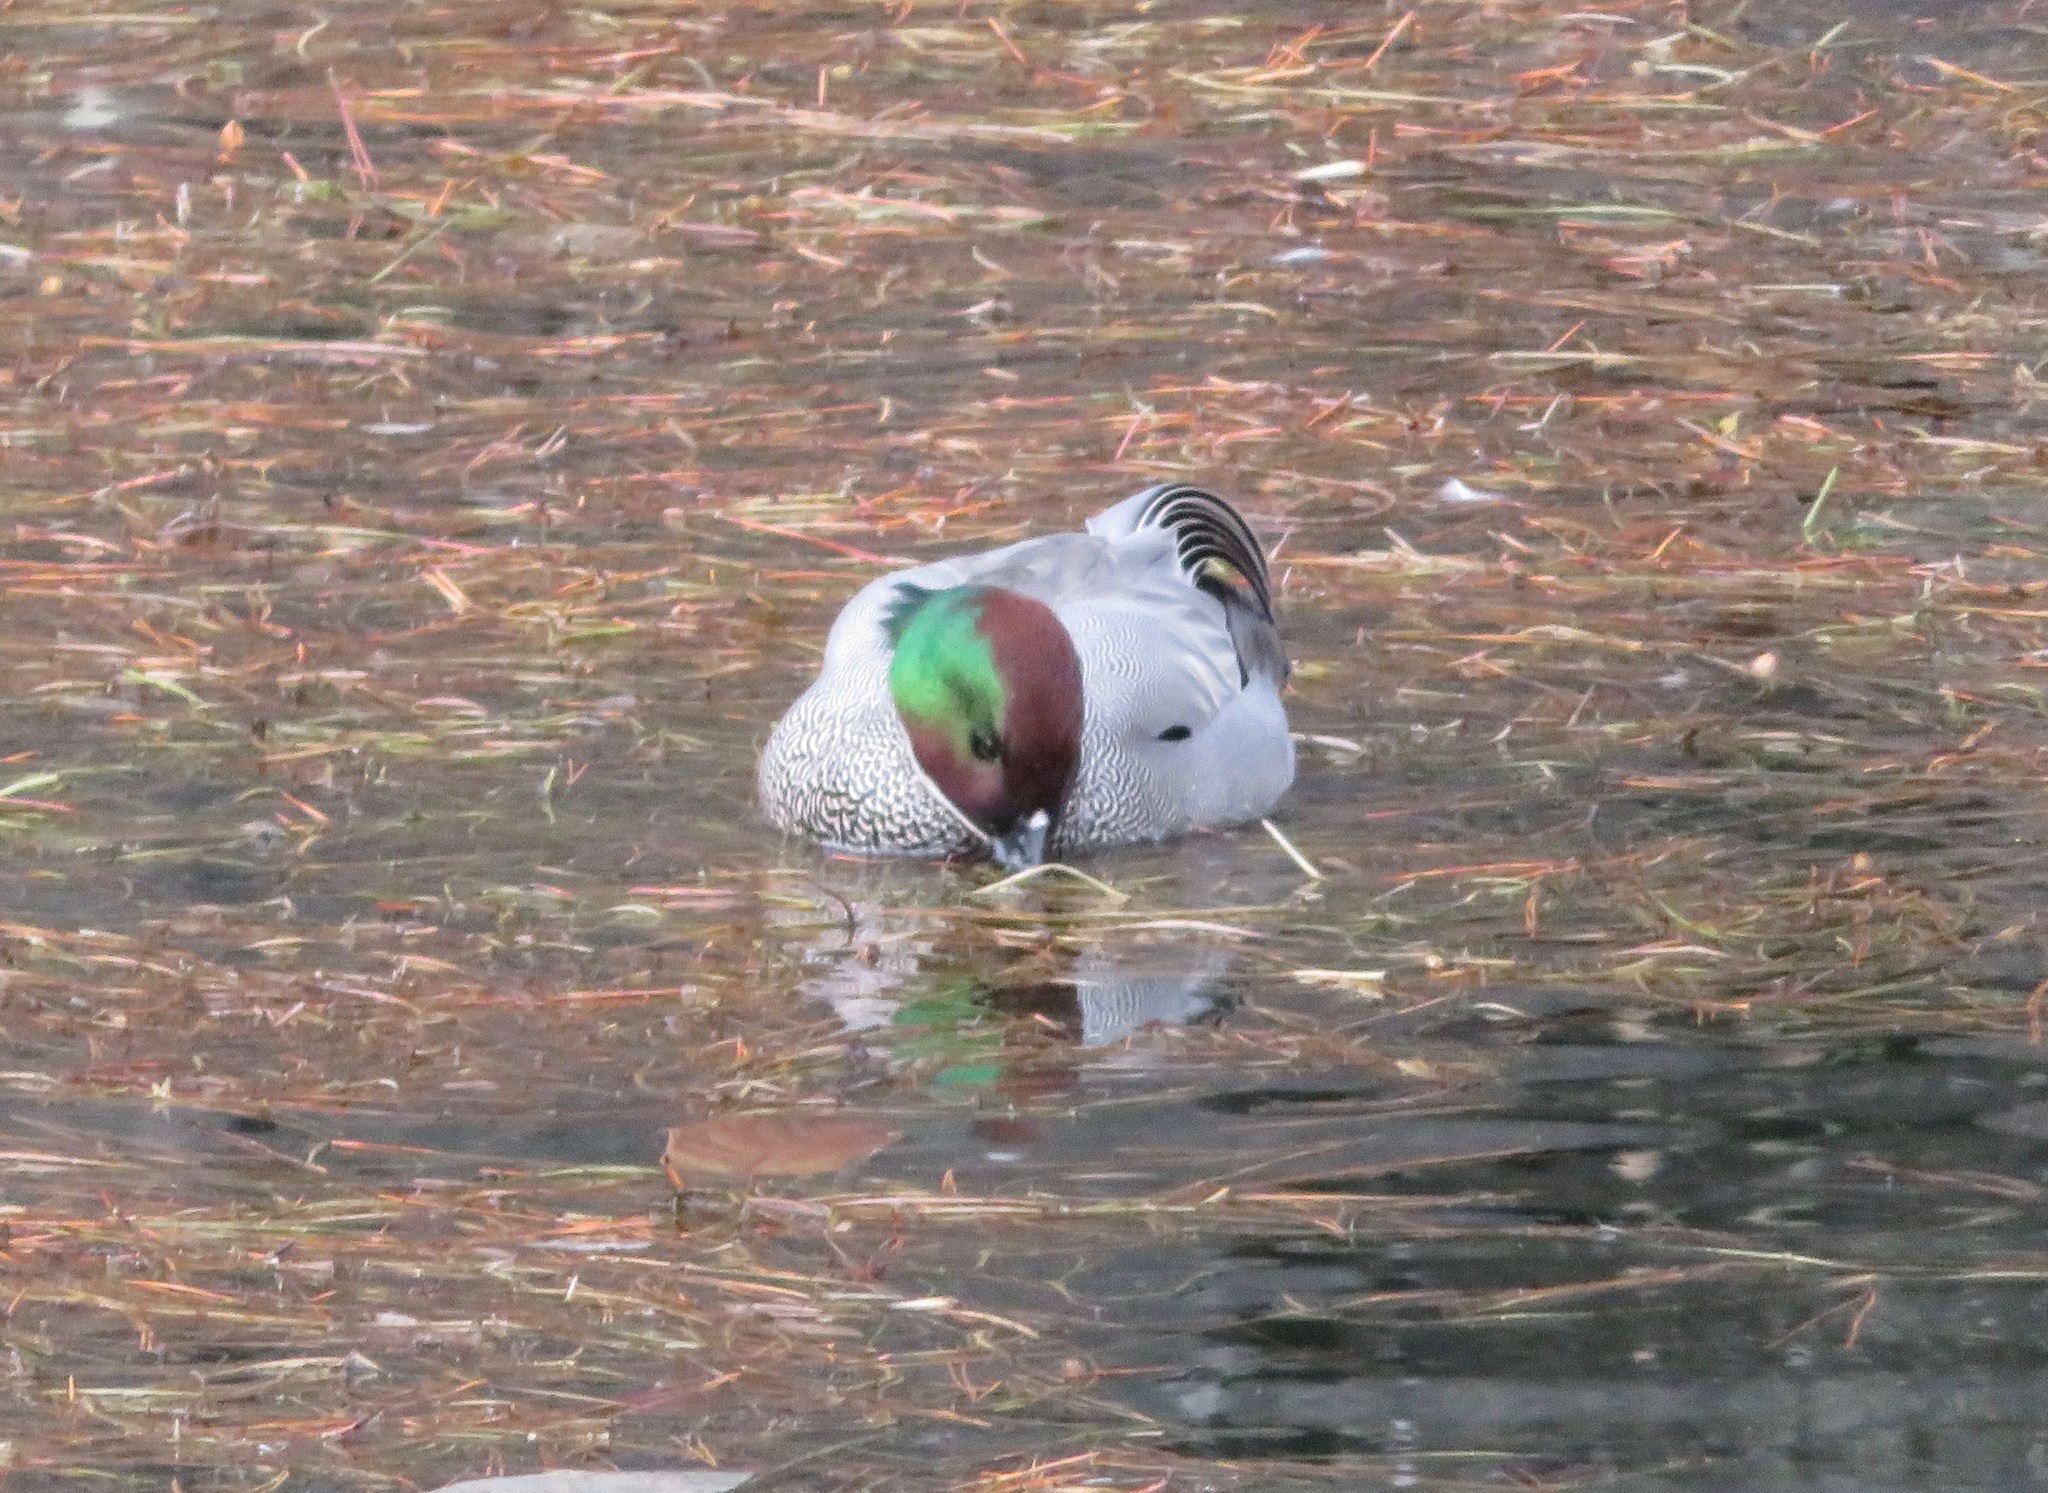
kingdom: Animalia
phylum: Chordata
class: Aves
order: Anseriformes
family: Anatidae
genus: Mareca
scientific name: Mareca falcata
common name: Falcated duck
